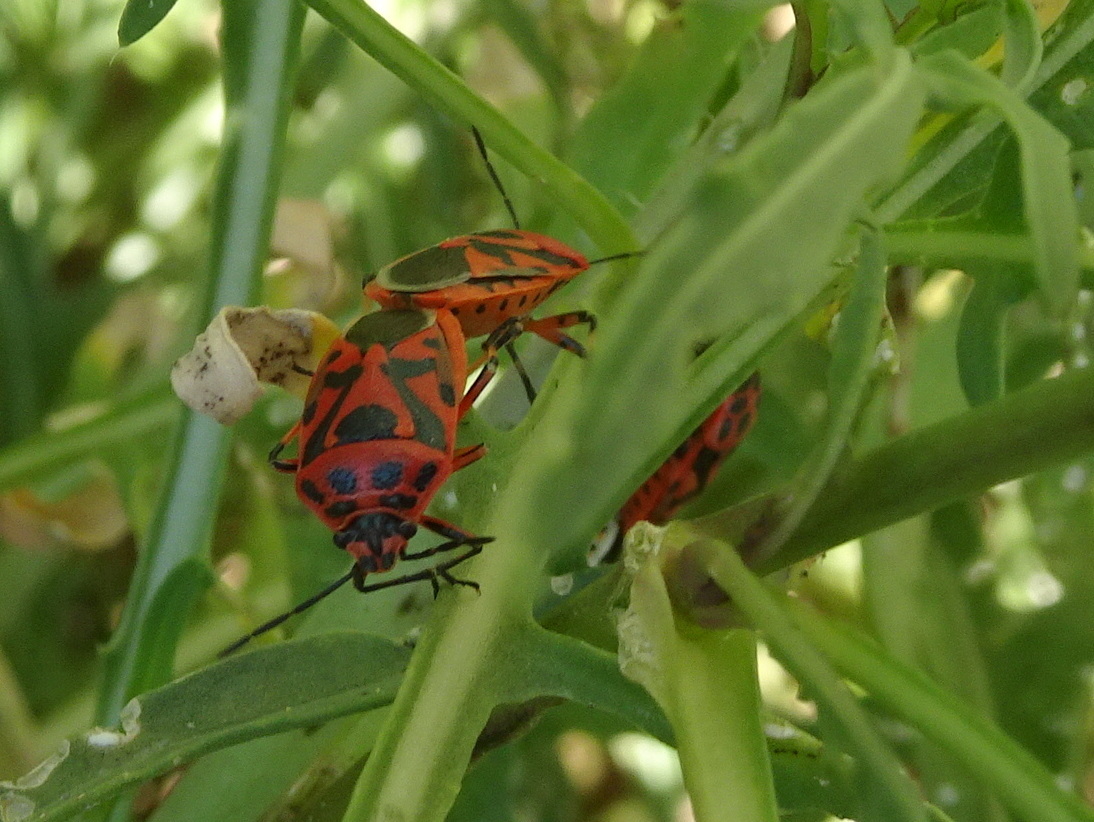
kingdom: Animalia
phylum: Arthropoda
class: Insecta
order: Hemiptera
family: Pentatomidae
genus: Eurydema
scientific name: Eurydema ornata
